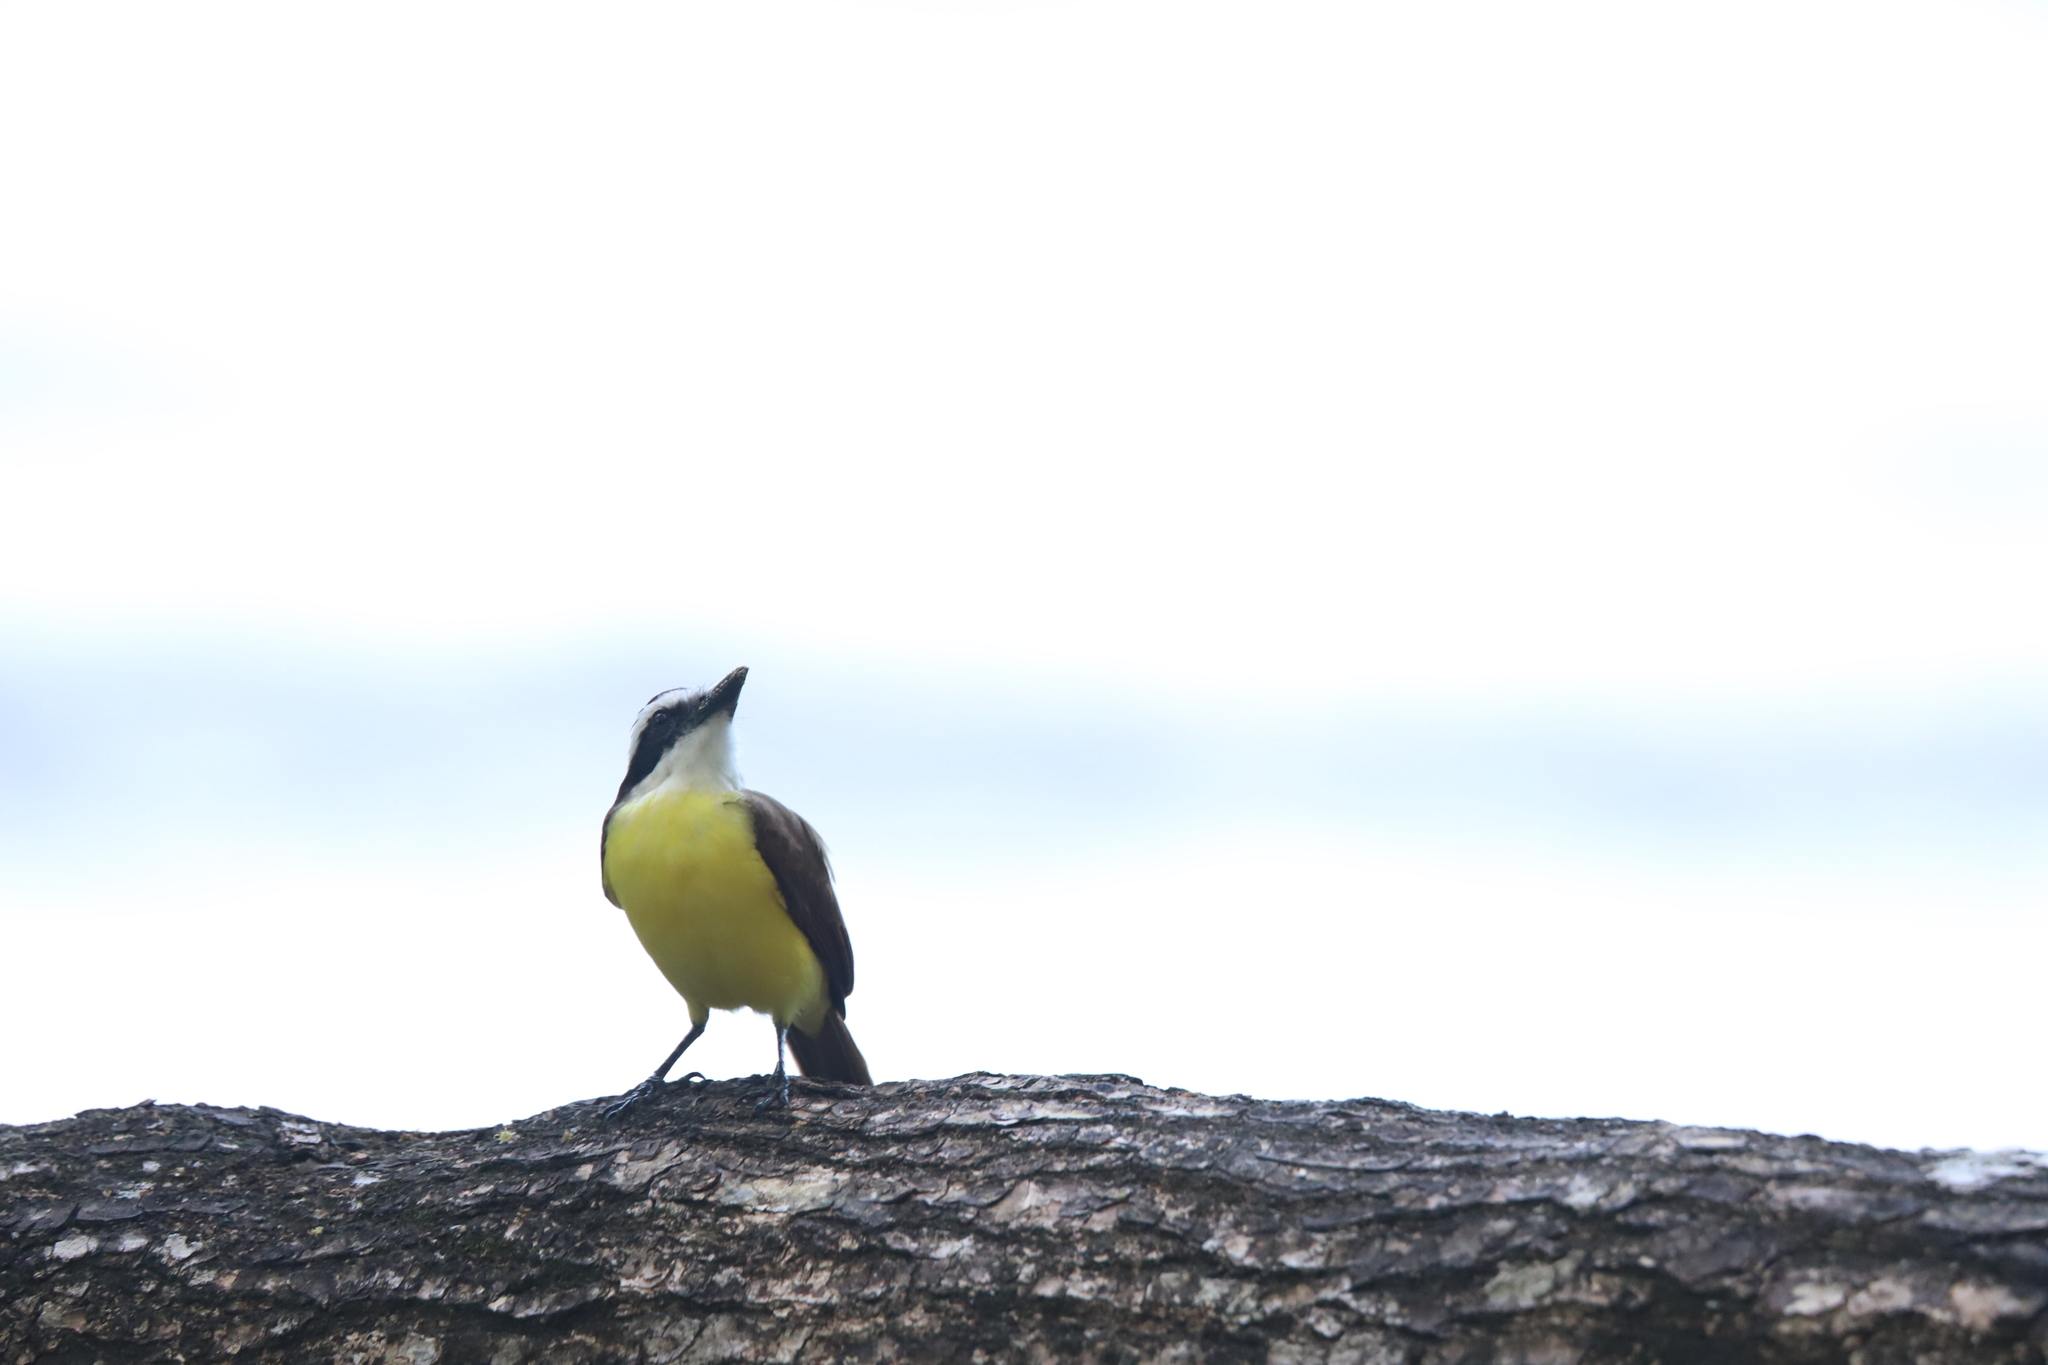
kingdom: Animalia
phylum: Chordata
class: Aves
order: Passeriformes
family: Tyrannidae
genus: Pitangus
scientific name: Pitangus sulphuratus
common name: Great kiskadee
